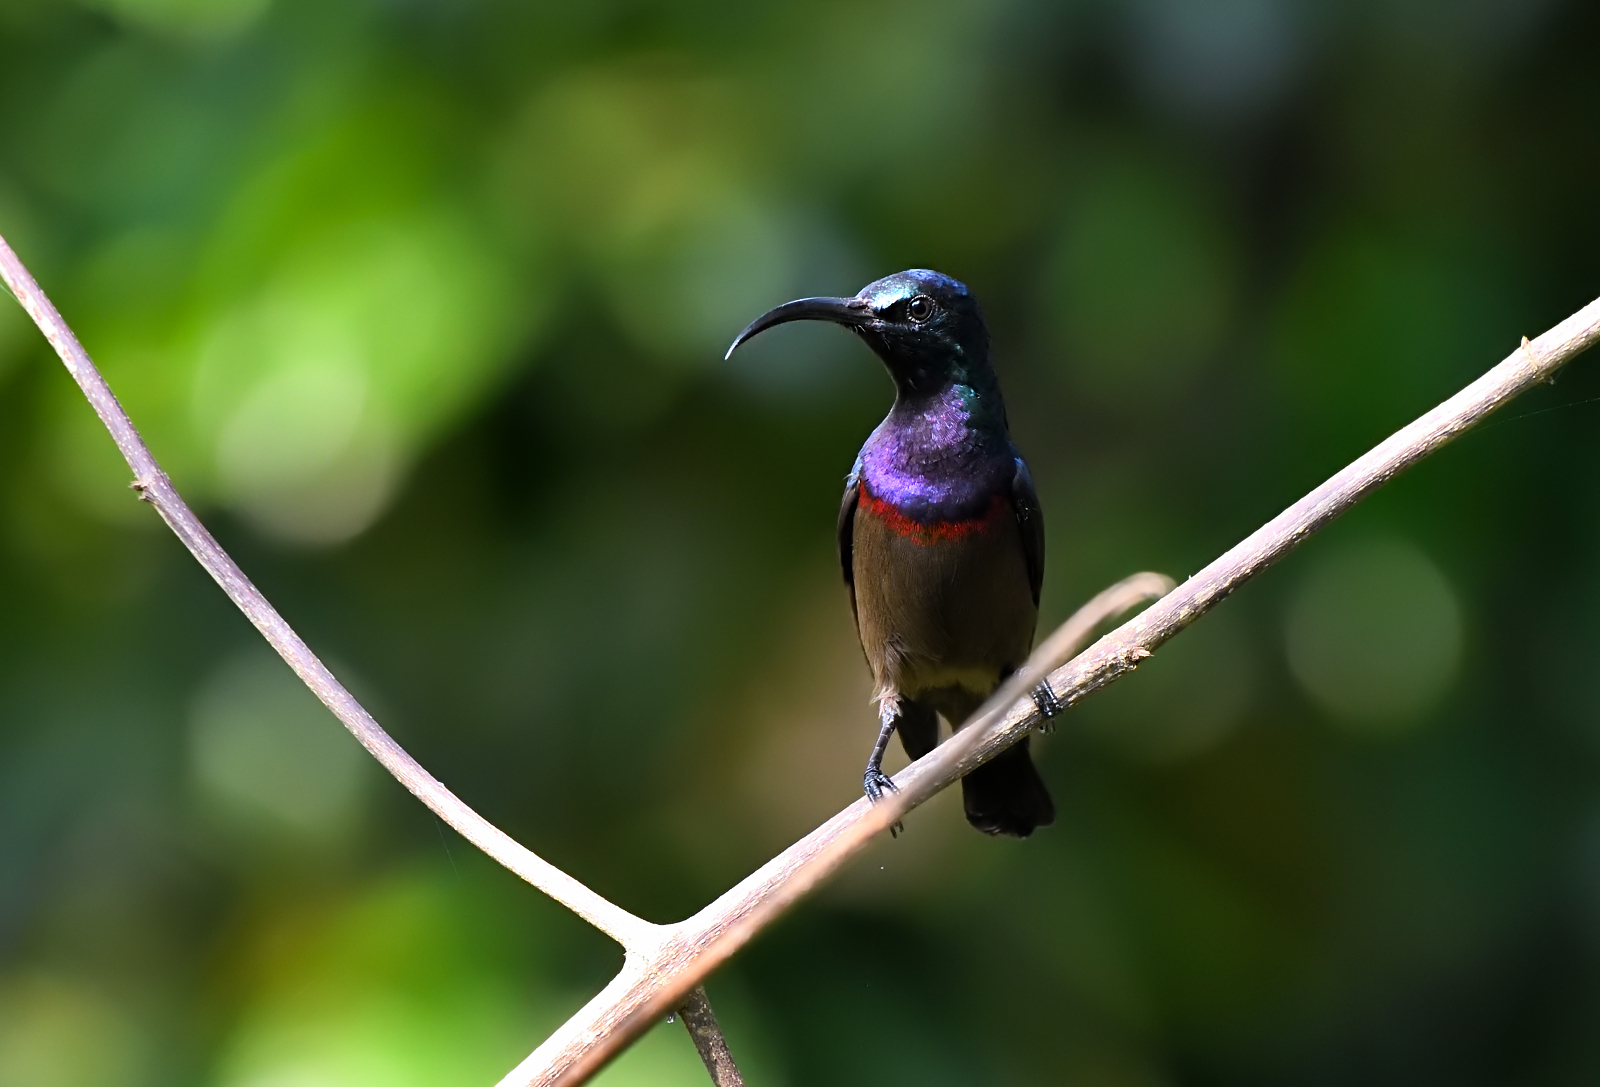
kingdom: Animalia
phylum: Chordata
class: Aves
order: Passeriformes
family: Nectariniidae
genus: Cinnyris
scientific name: Cinnyris lotenius
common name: Loten's sunbird
